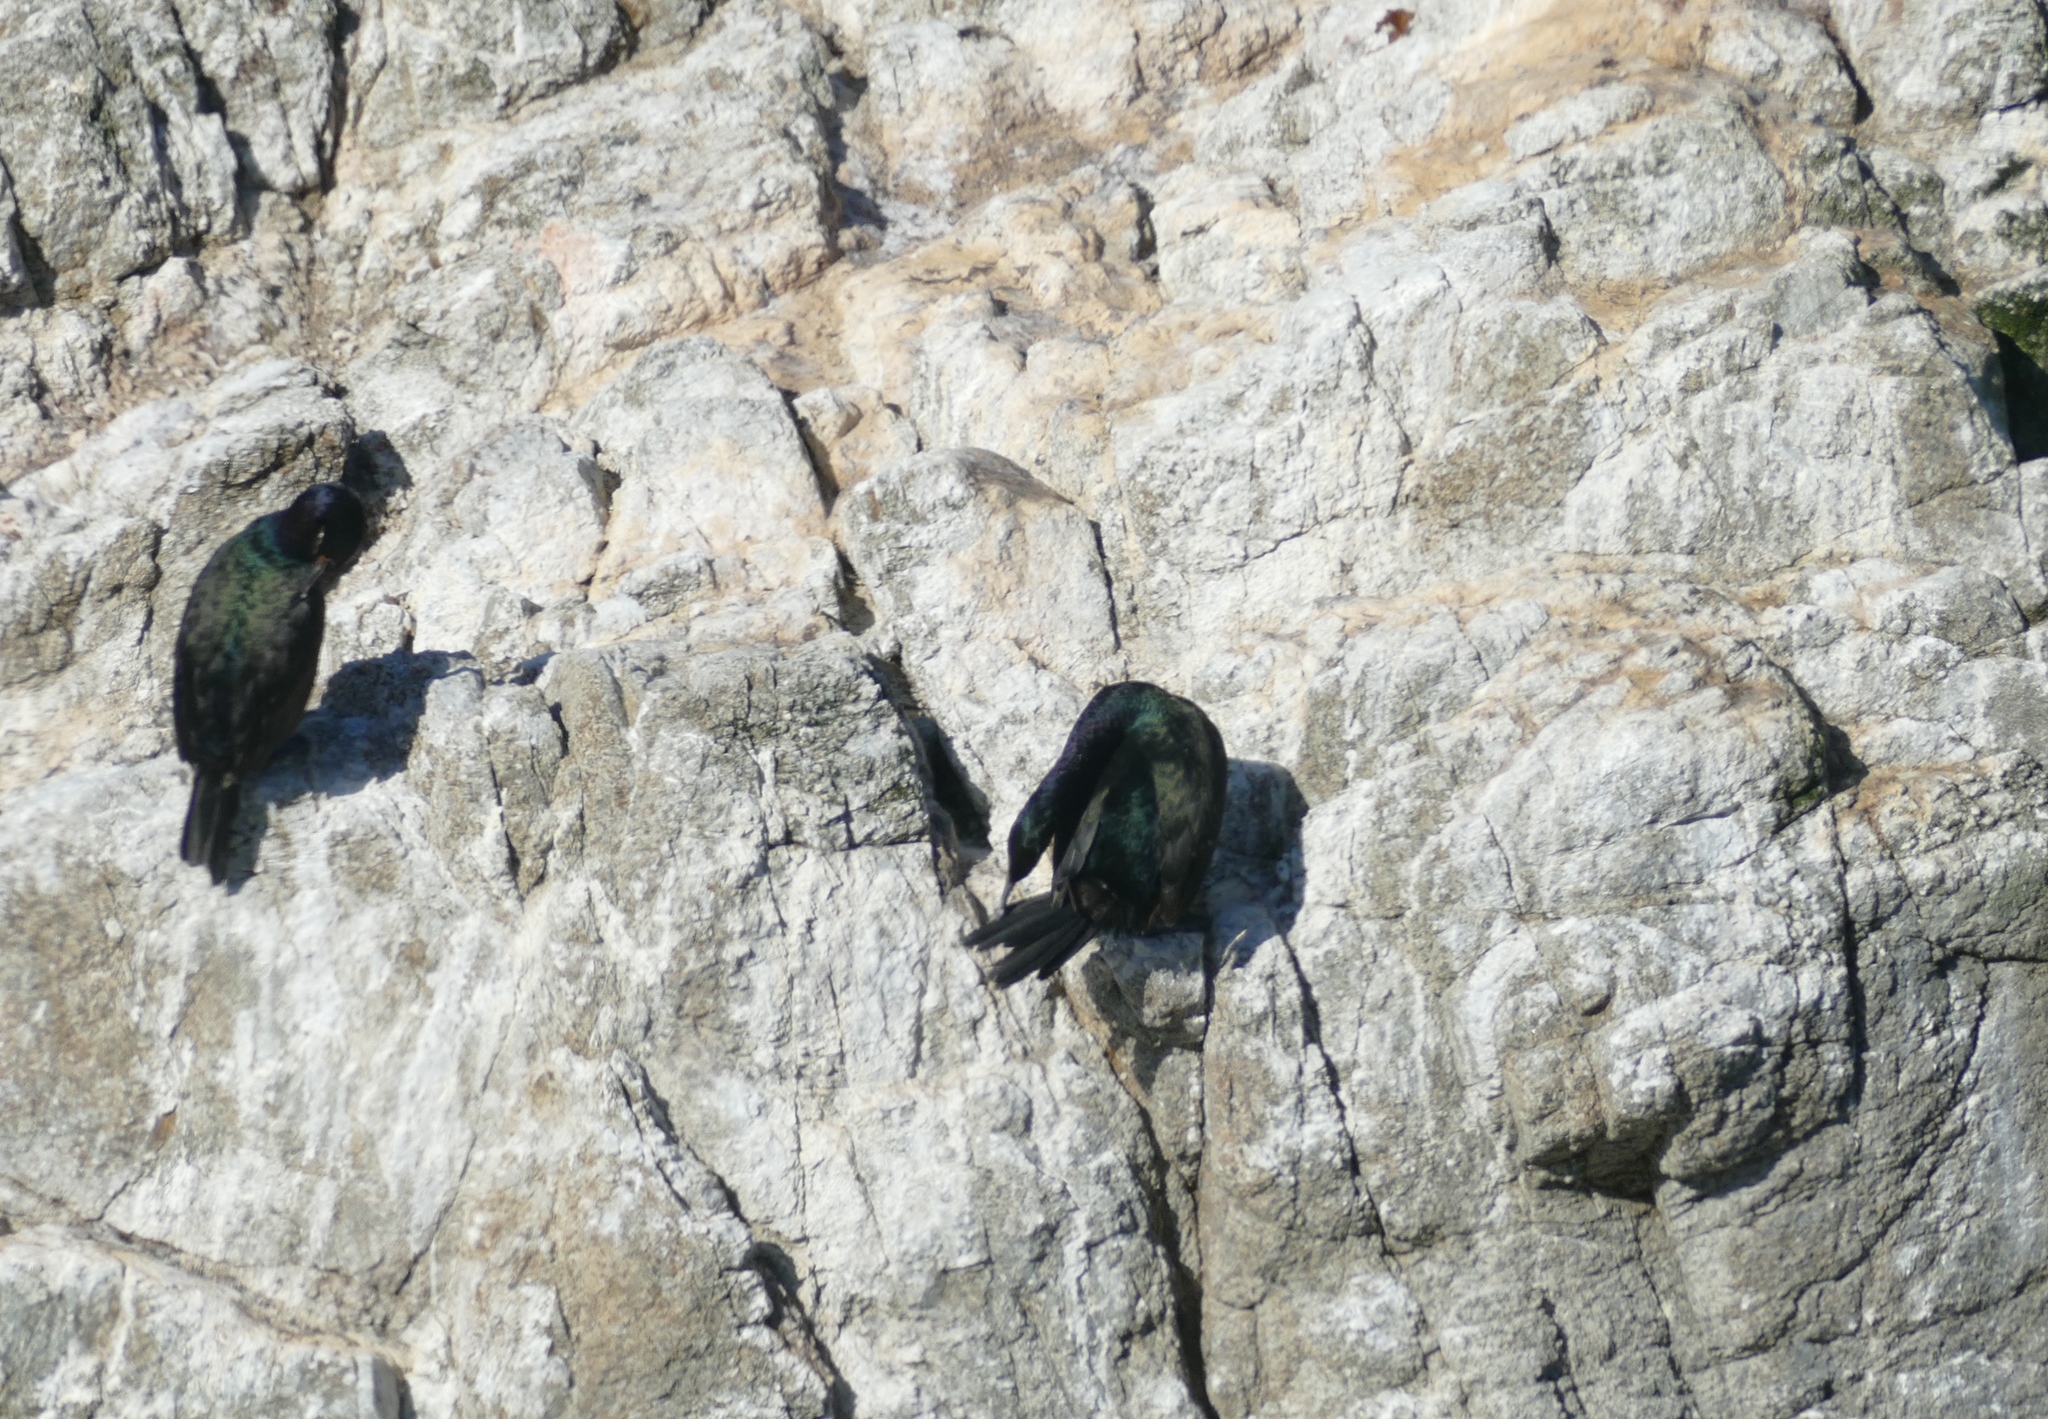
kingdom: Animalia
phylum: Chordata
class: Aves
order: Suliformes
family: Phalacrocoracidae
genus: Urile
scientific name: Urile penicillatus
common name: Brandt's cormorant
